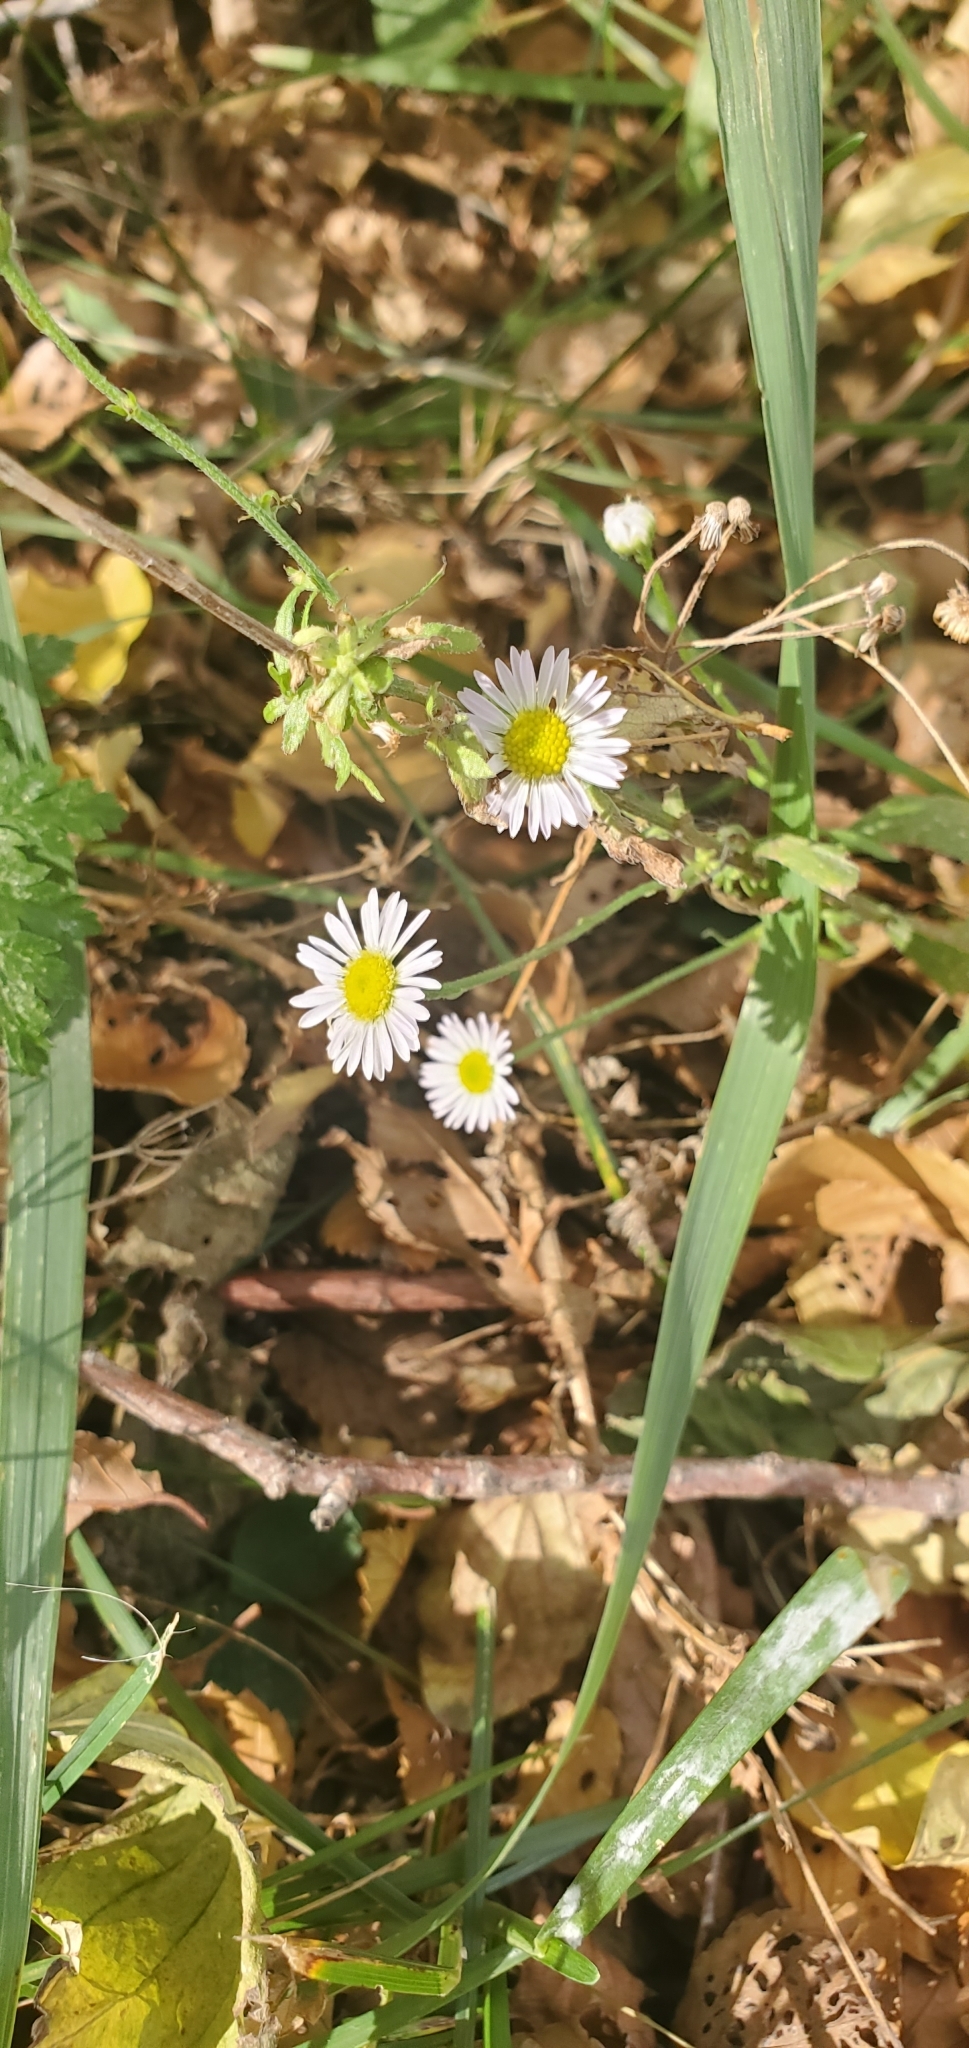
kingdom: Plantae
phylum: Tracheophyta
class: Magnoliopsida
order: Asterales
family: Asteraceae
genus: Erigeron
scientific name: Erigeron
